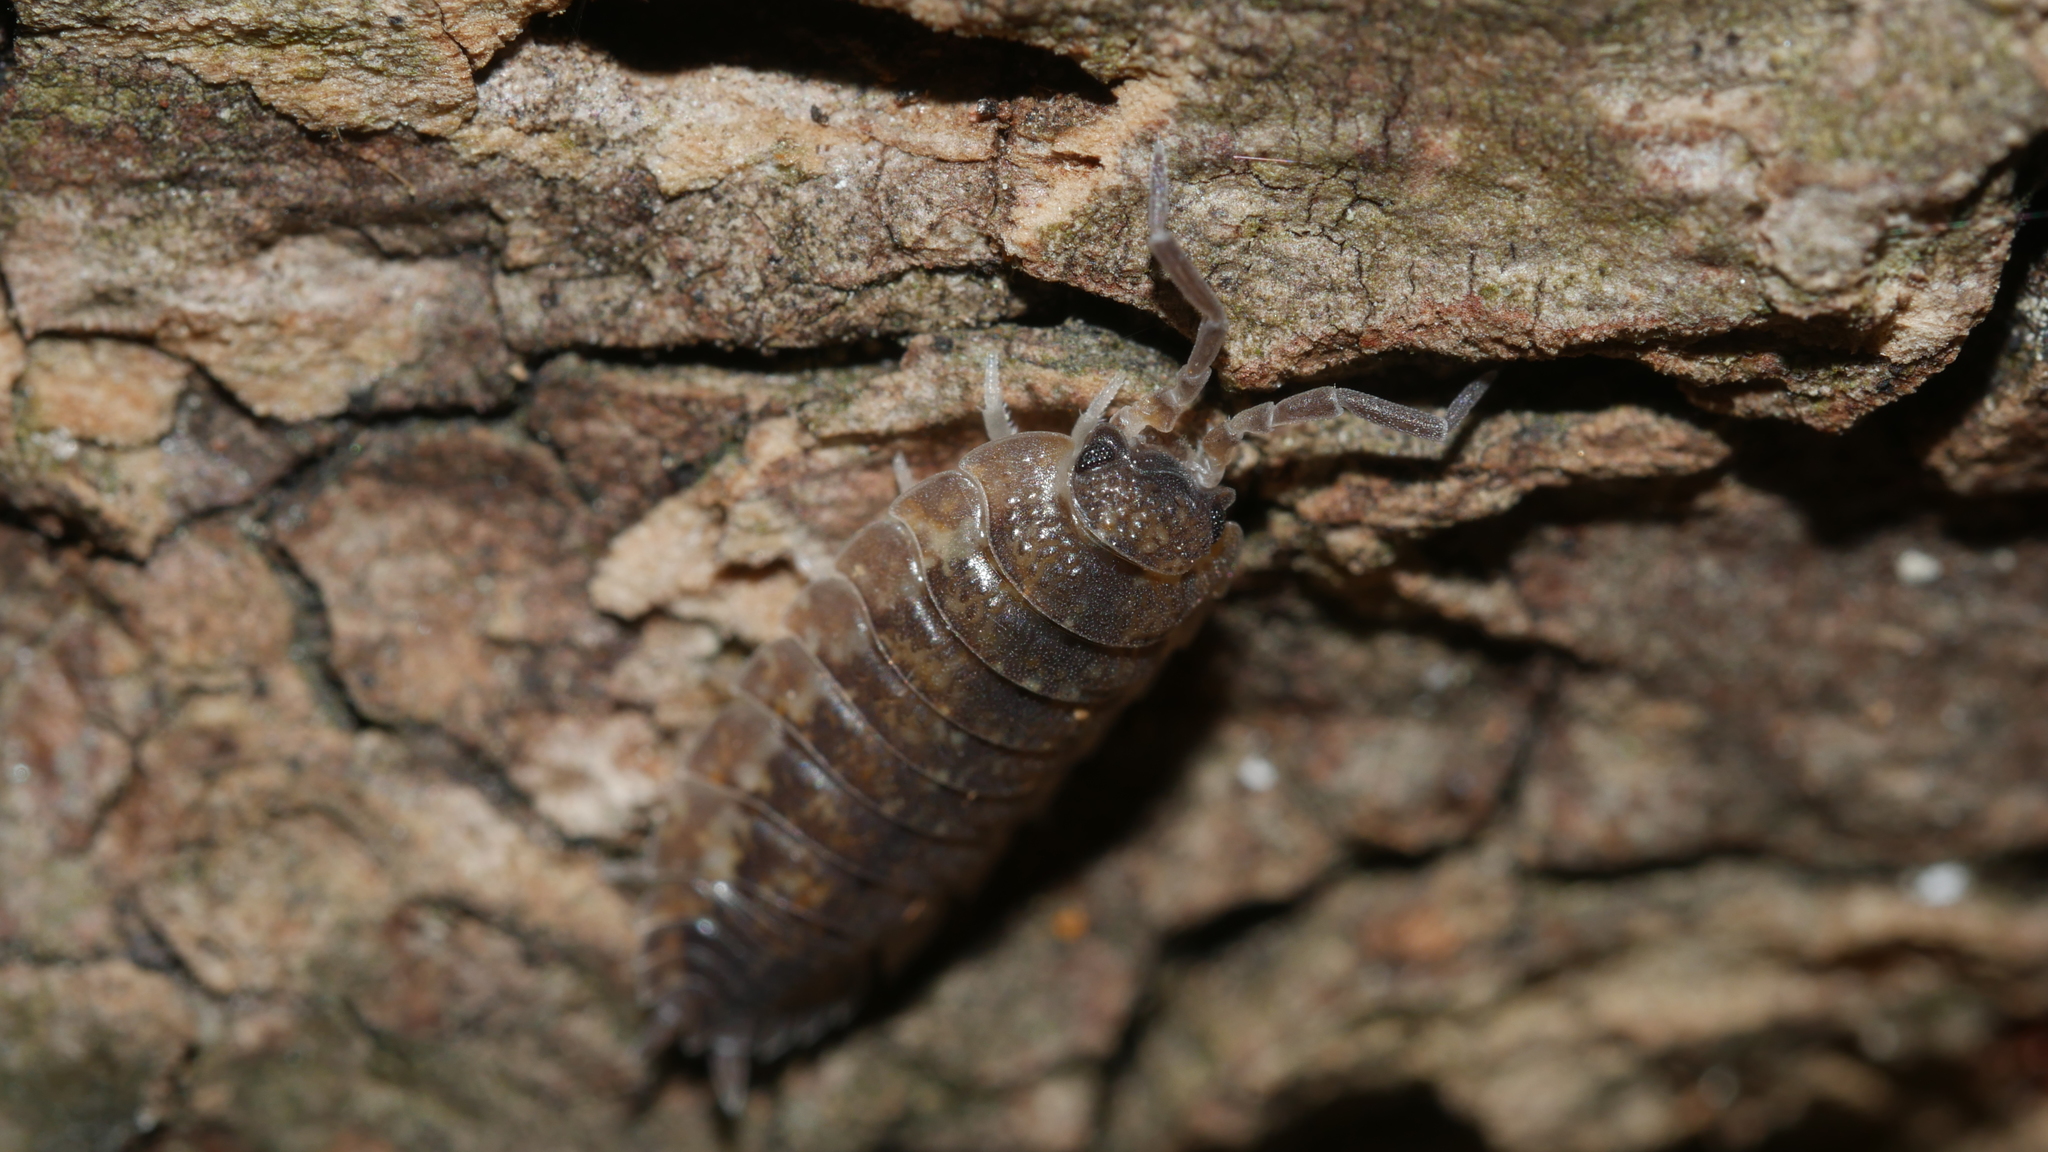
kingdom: Animalia
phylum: Arthropoda
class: Malacostraca
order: Isopoda
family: Porcellionidae
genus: Porcellio
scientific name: Porcellio scaber
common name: Common rough woodlouse
